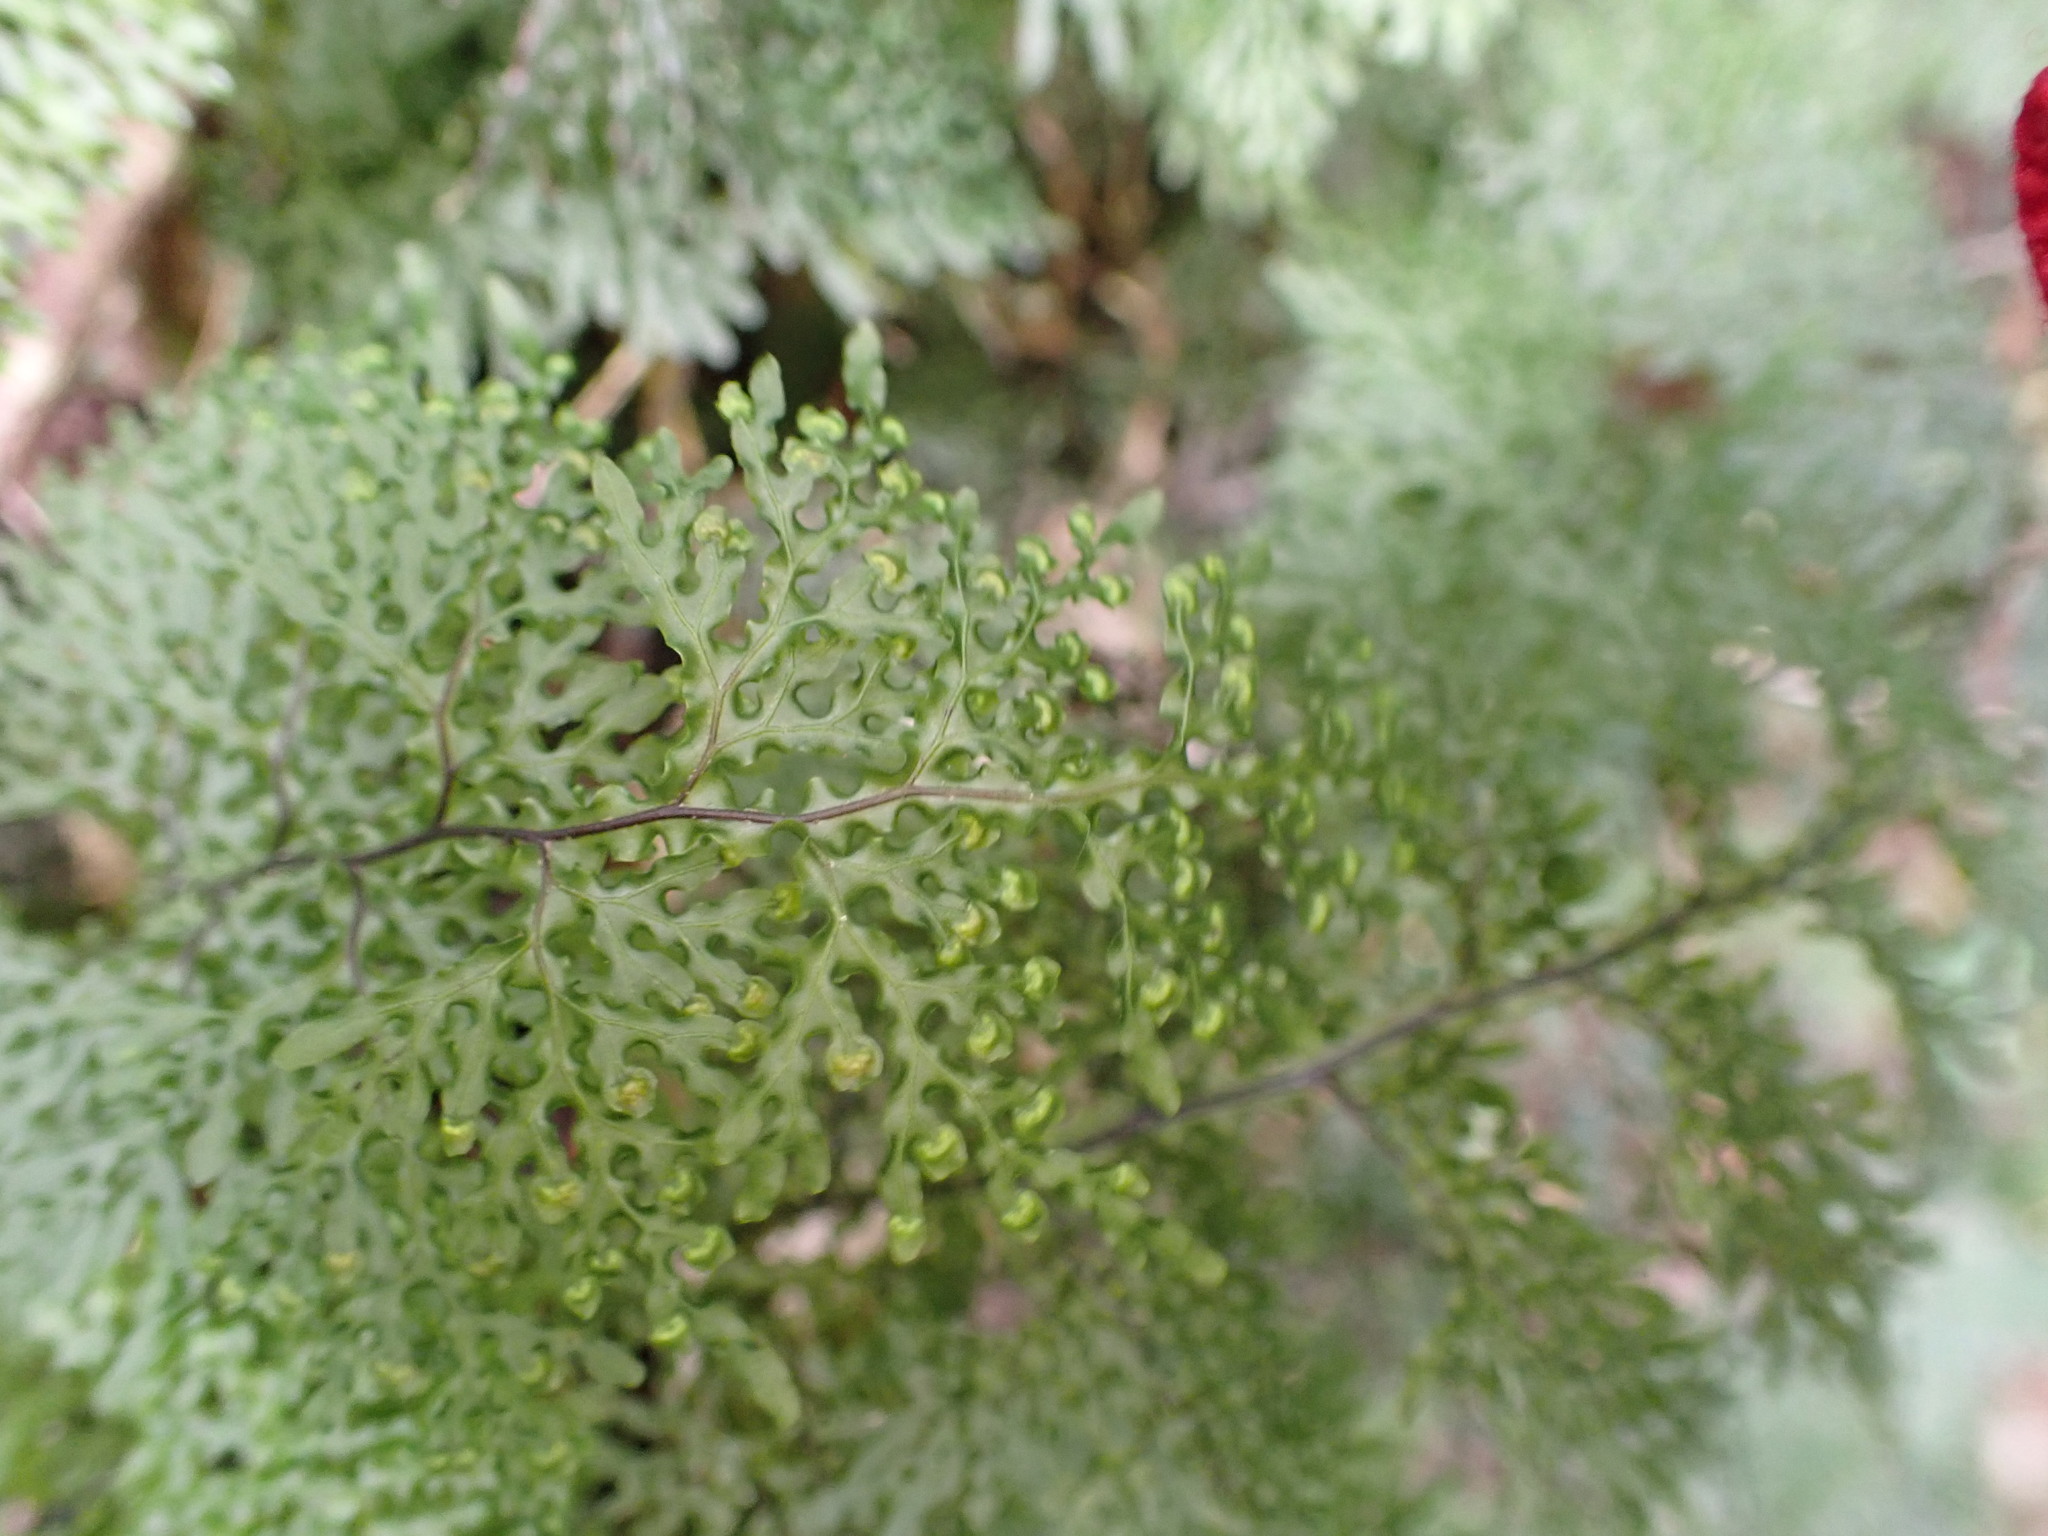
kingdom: Plantae
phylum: Tracheophyta
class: Polypodiopsida
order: Hymenophyllales
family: Hymenophyllaceae
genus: Hymenophyllum
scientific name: Hymenophyllum flexuosum
